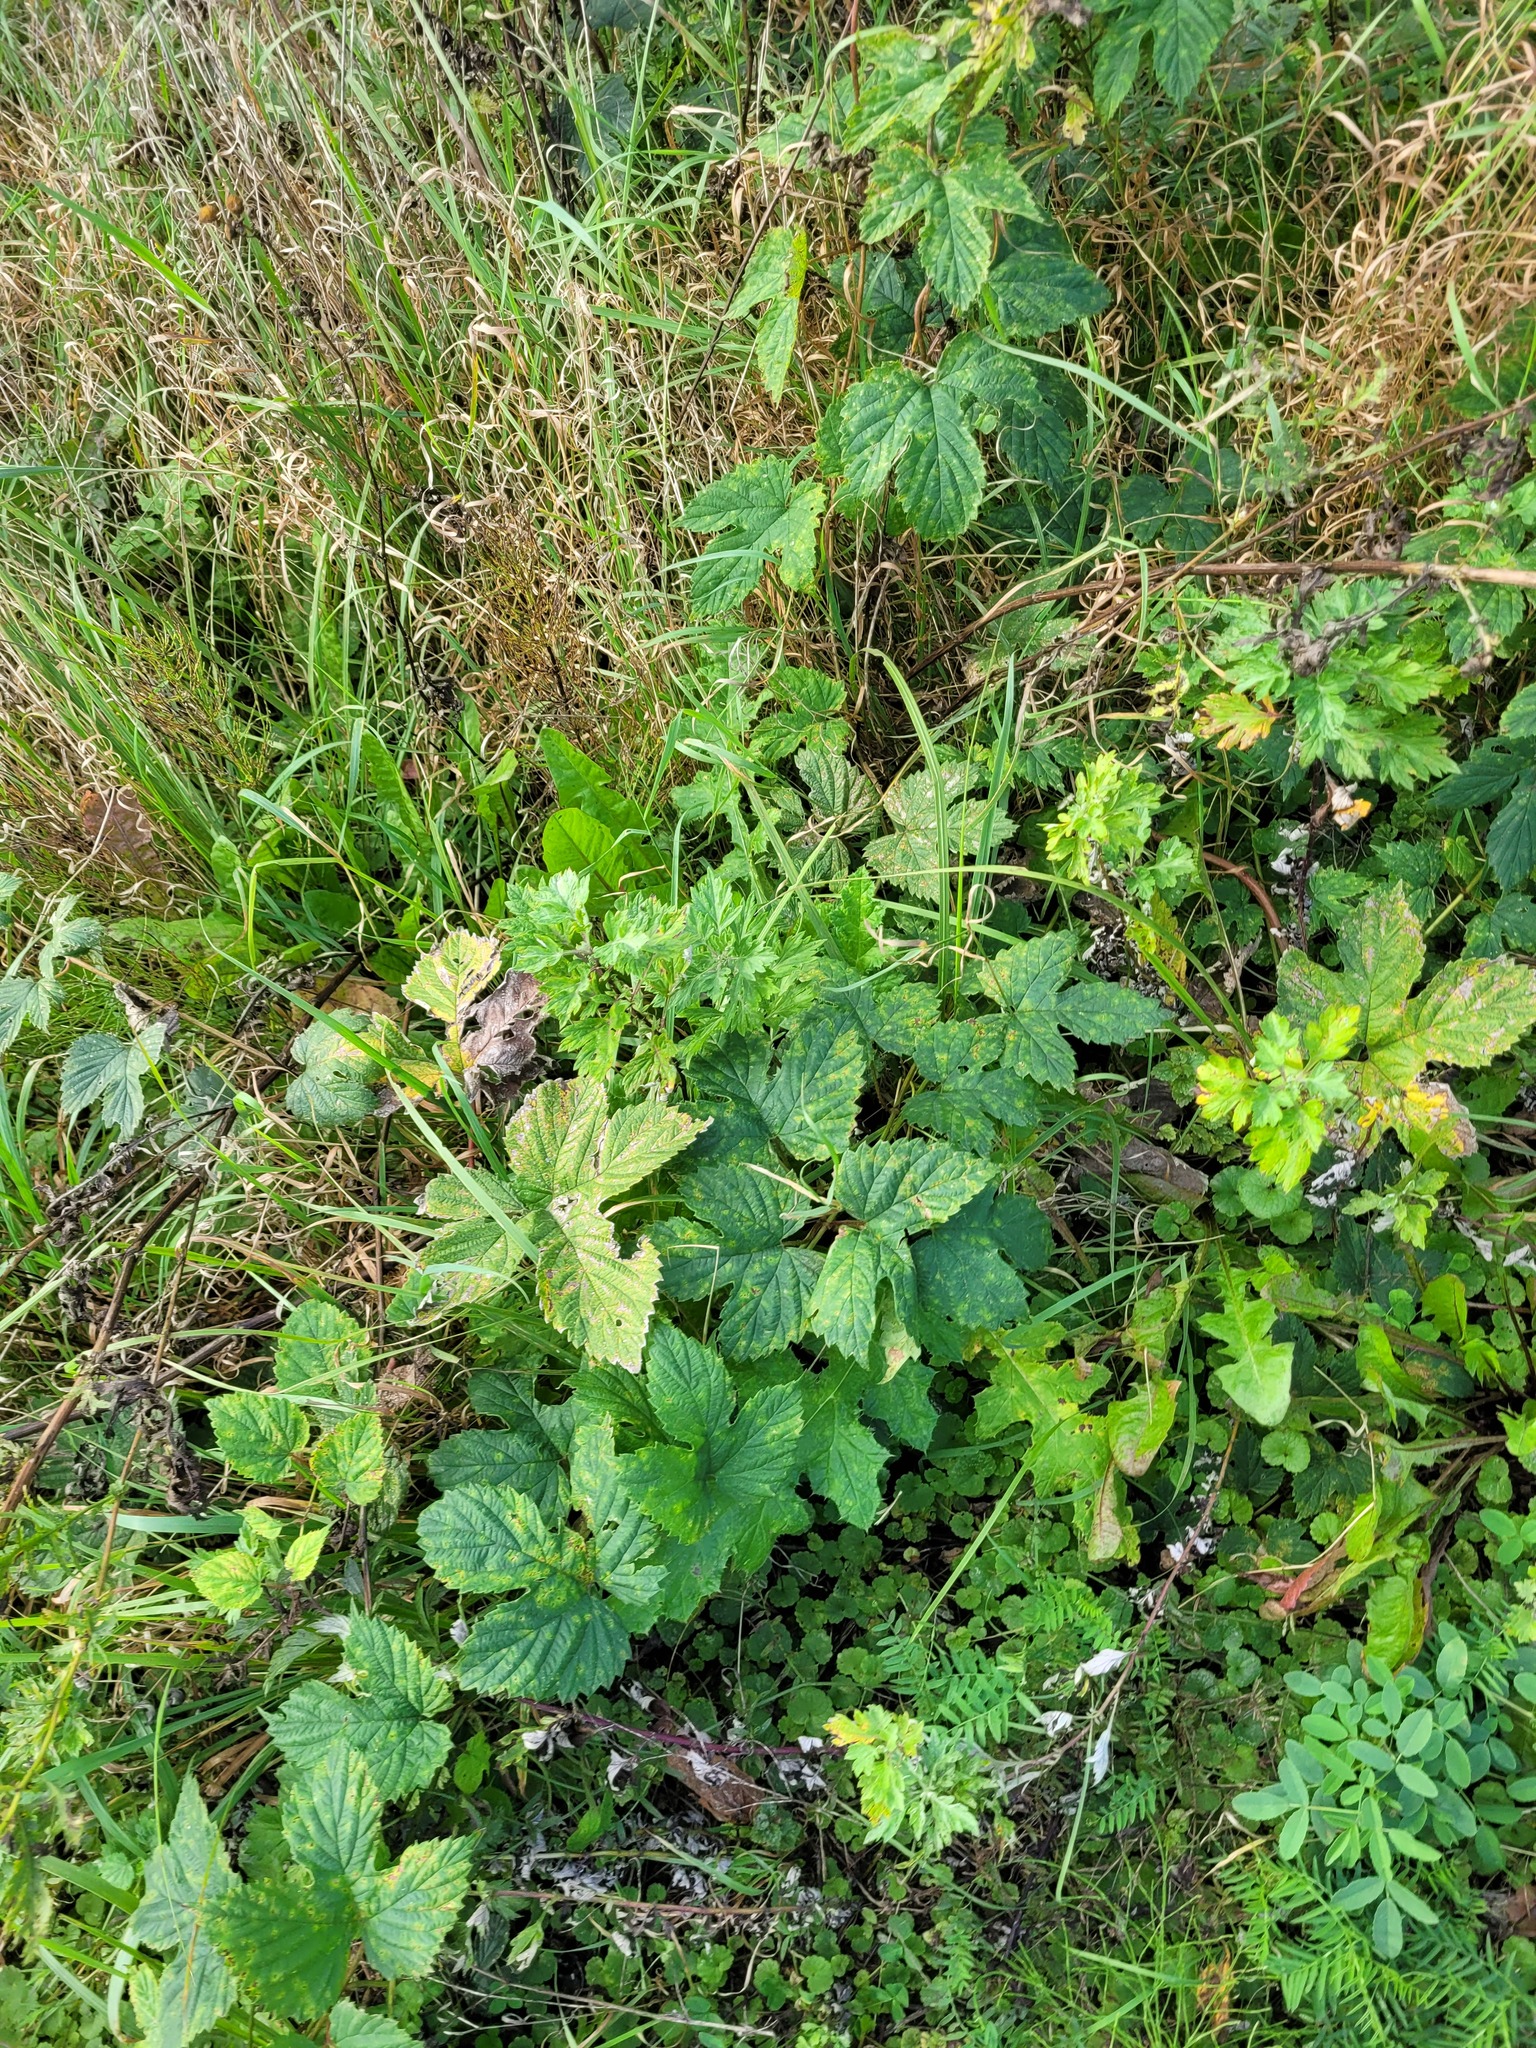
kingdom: Plantae
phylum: Tracheophyta
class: Magnoliopsida
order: Rosales
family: Cannabaceae
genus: Humulus
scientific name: Humulus lupulus
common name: Hop
